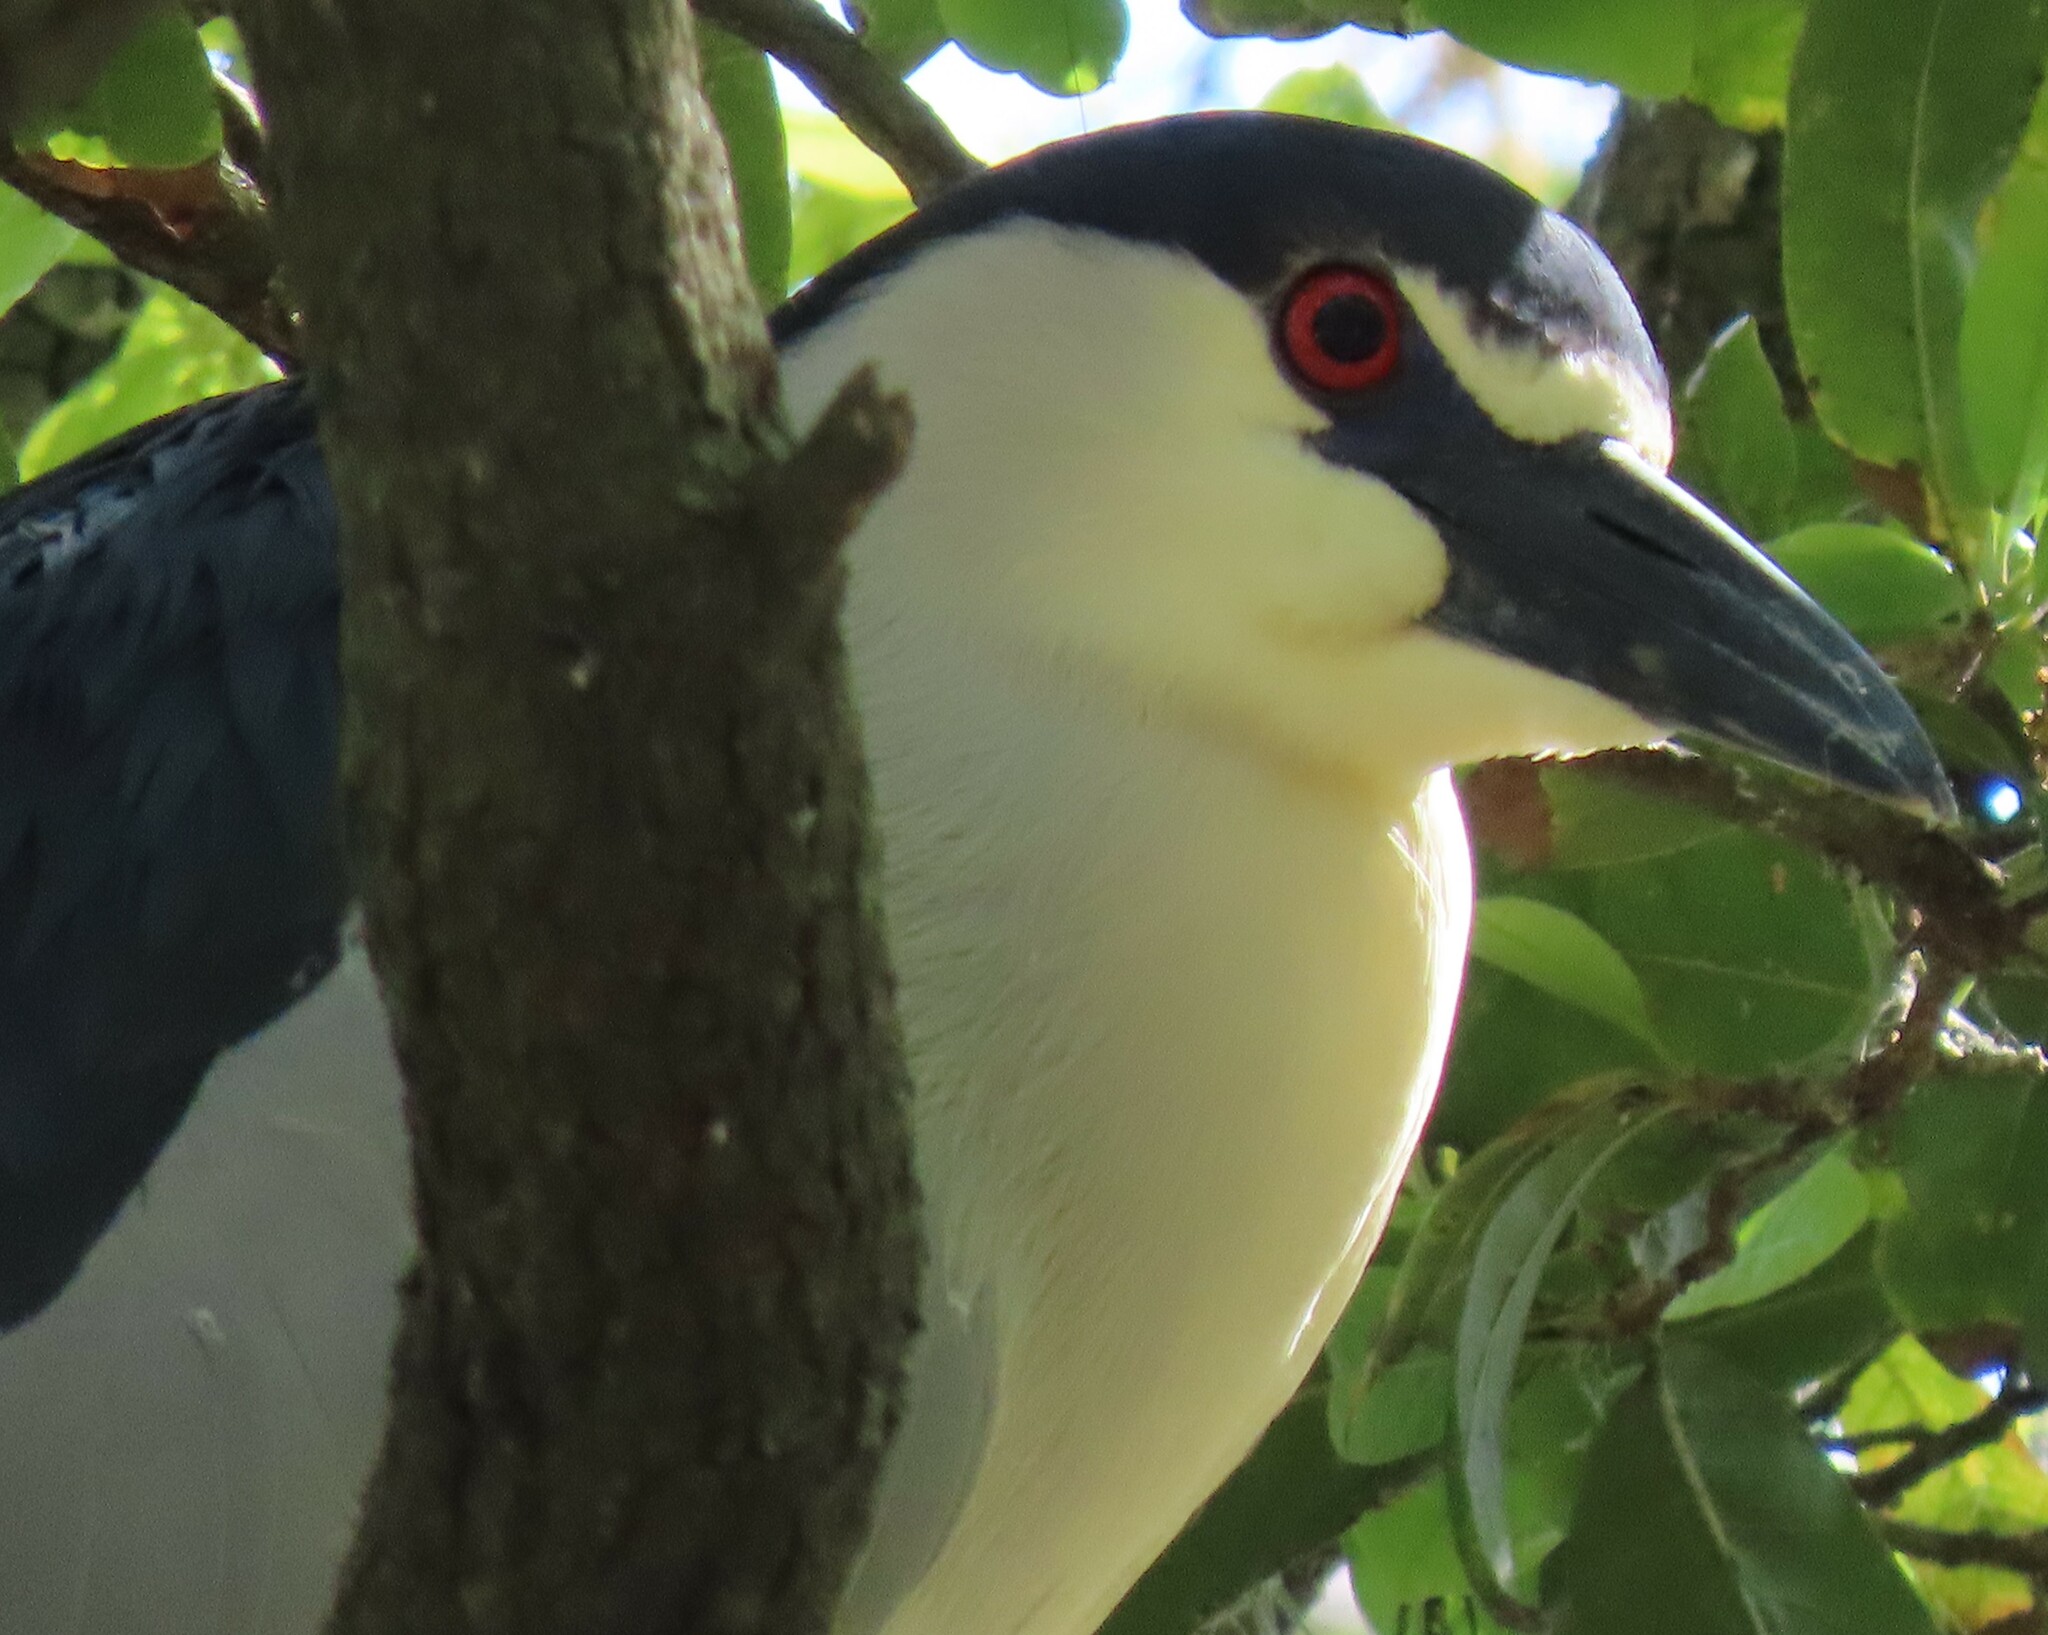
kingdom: Animalia
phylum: Chordata
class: Aves
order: Pelecaniformes
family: Ardeidae
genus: Nycticorax
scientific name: Nycticorax nycticorax
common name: Black-crowned night heron
